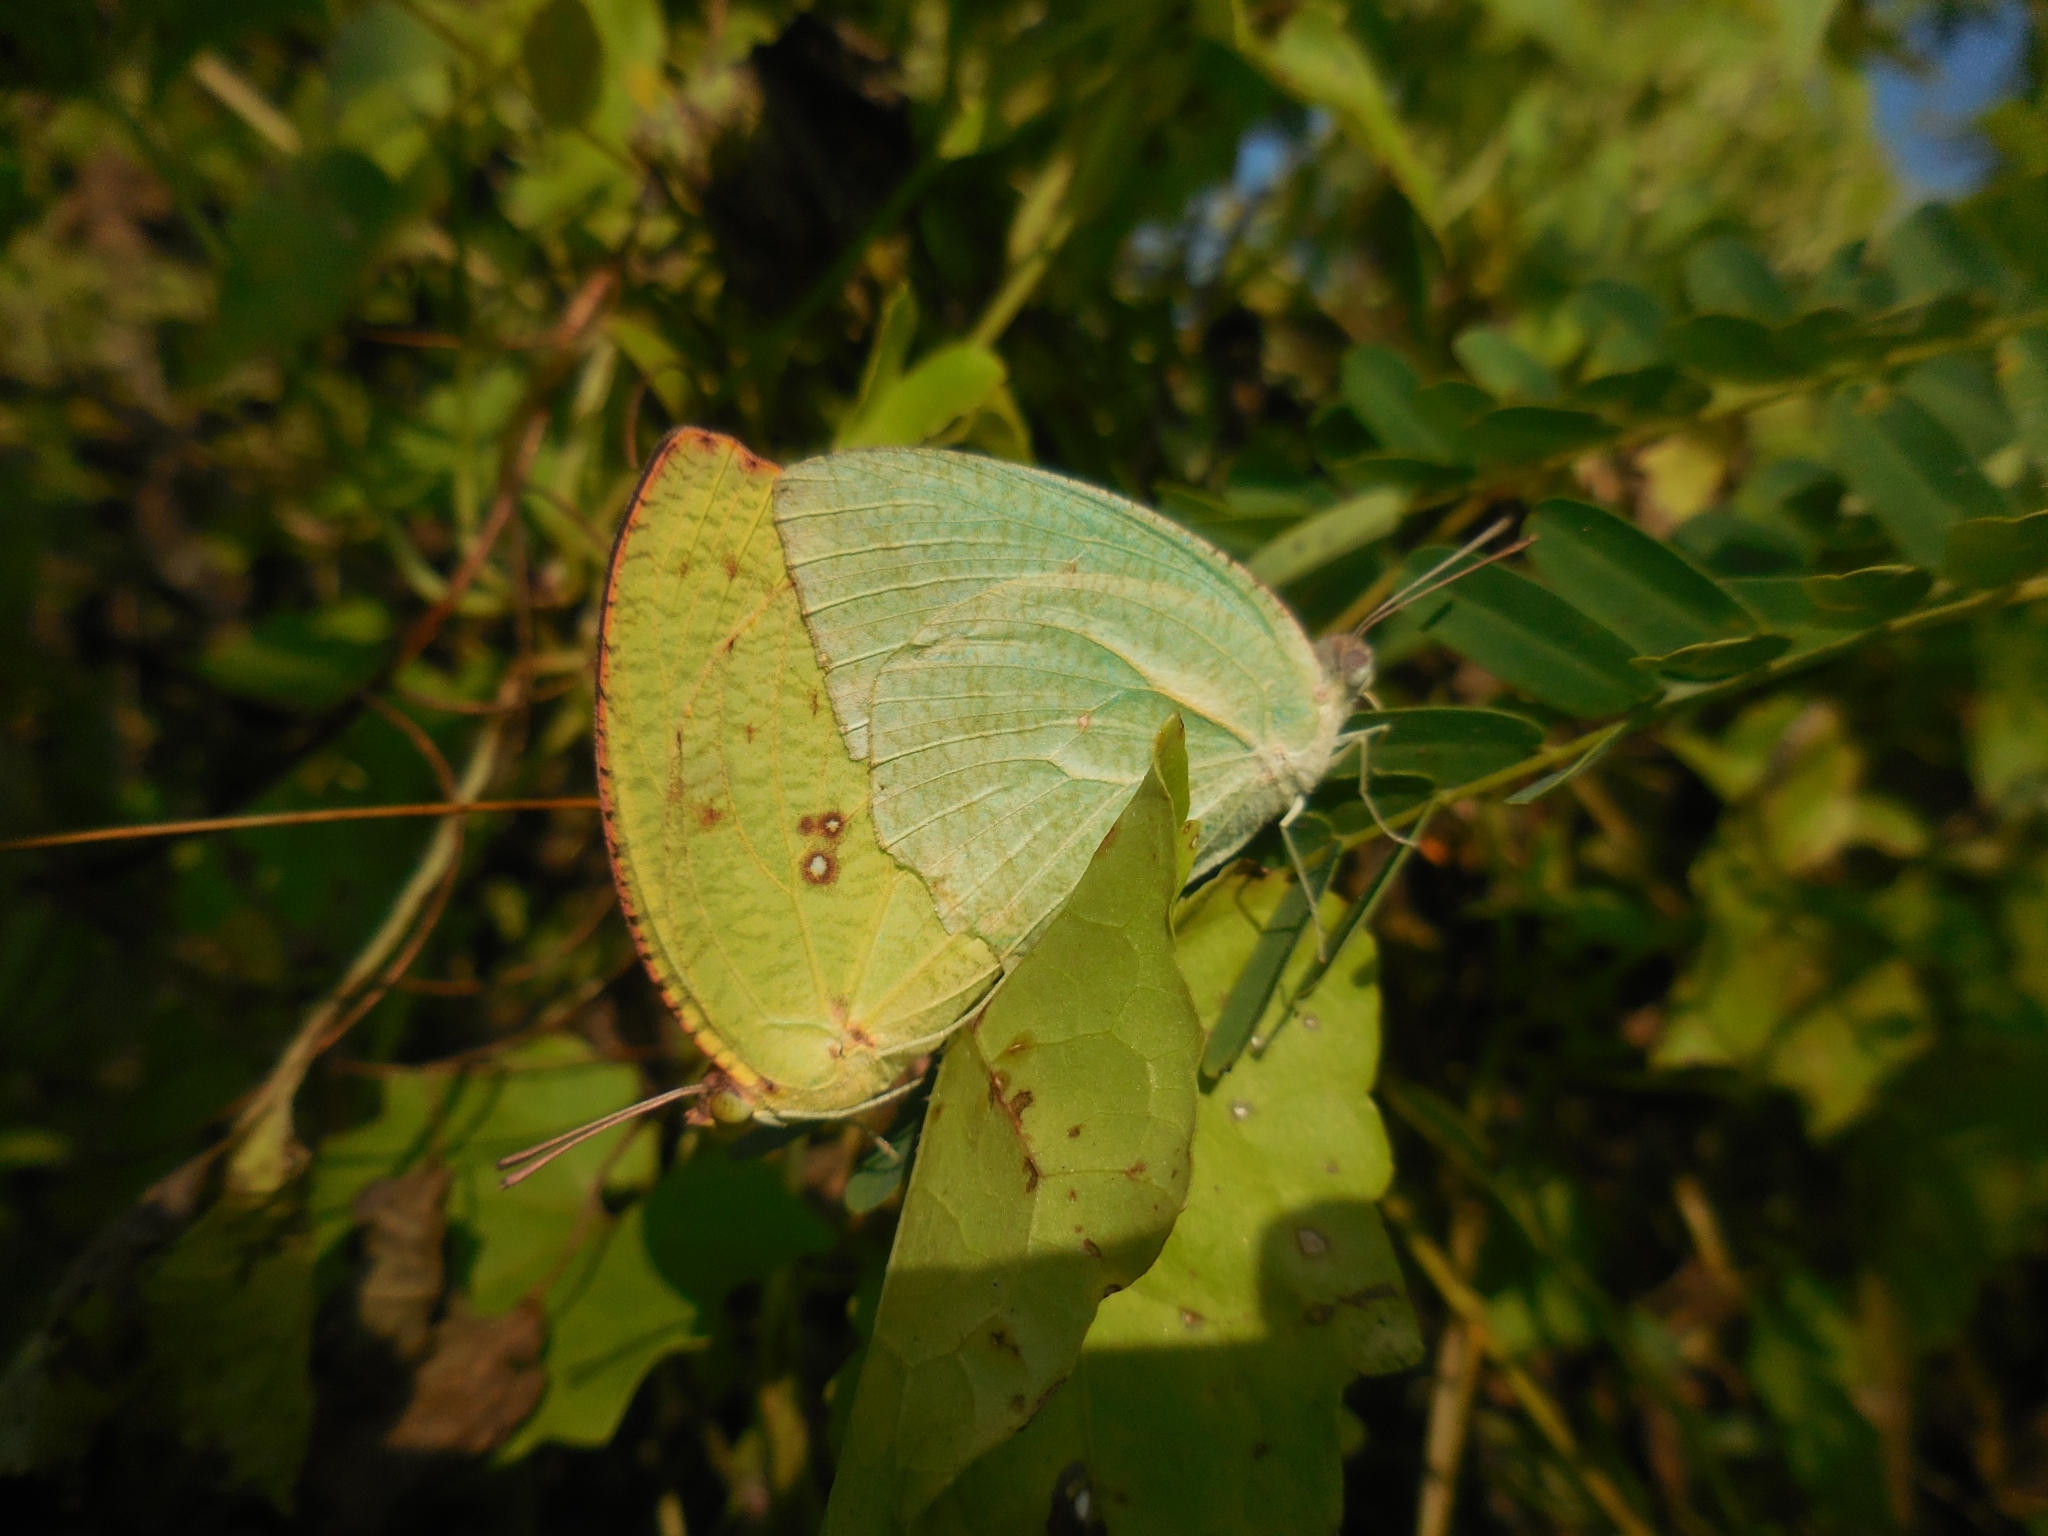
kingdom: Animalia
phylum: Arthropoda
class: Insecta
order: Lepidoptera
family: Pieridae
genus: Catopsilia
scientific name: Catopsilia pyranthe
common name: Mottled emigrant
